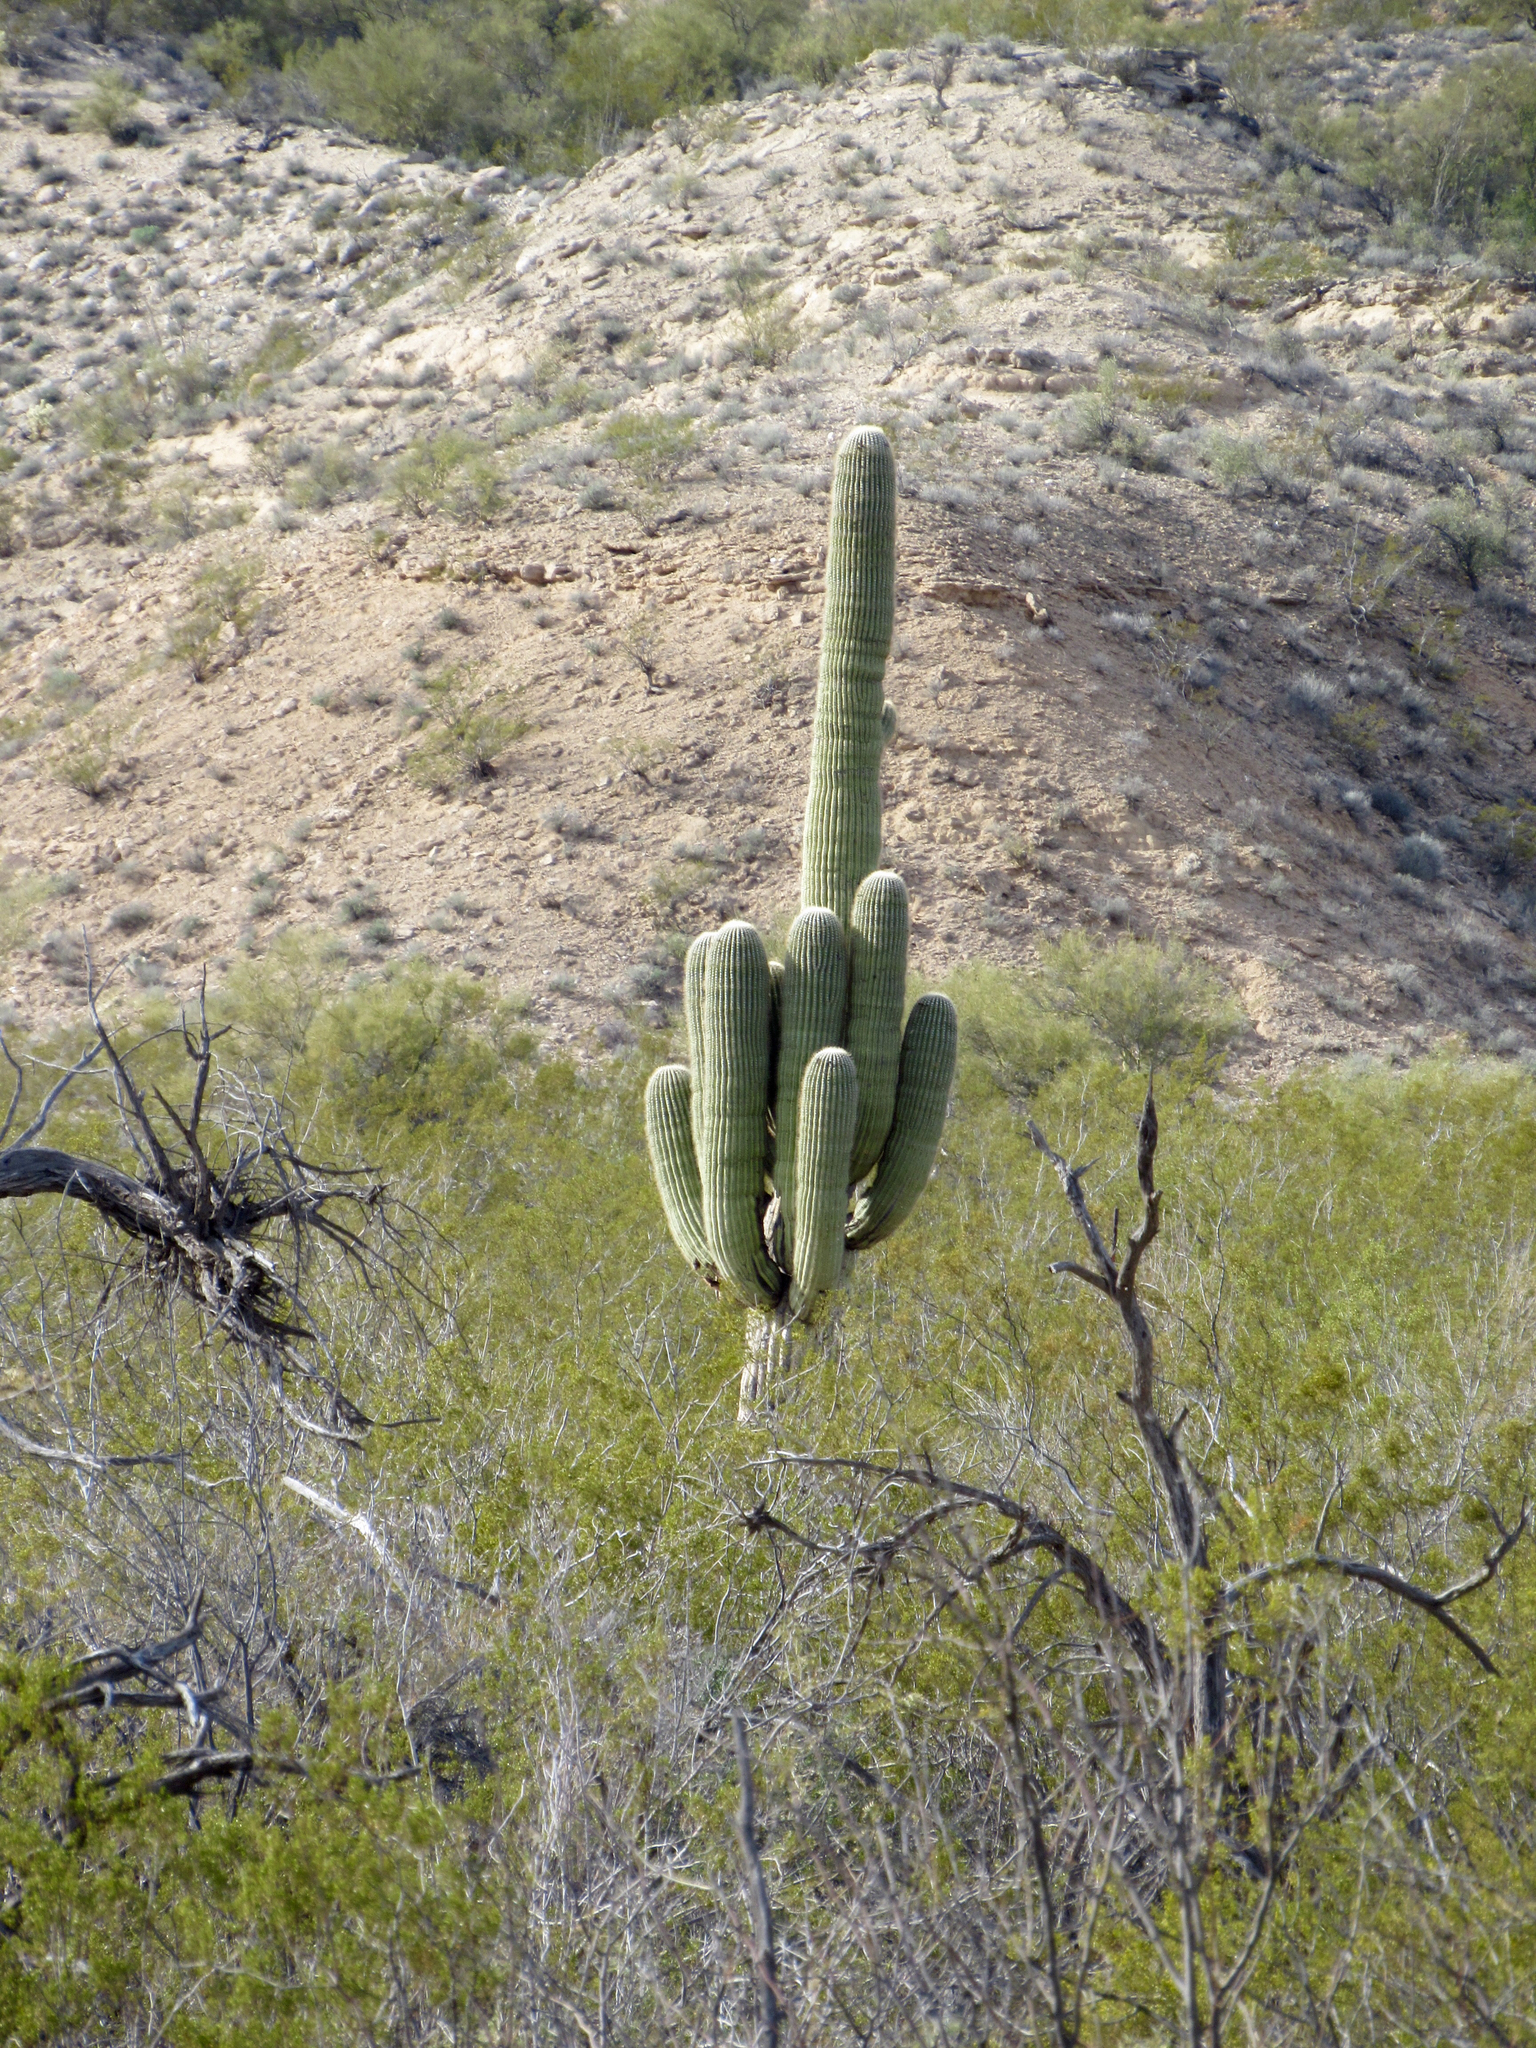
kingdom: Plantae
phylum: Tracheophyta
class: Magnoliopsida
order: Caryophyllales
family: Cactaceae
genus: Carnegiea
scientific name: Carnegiea gigantea
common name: Saguaro
